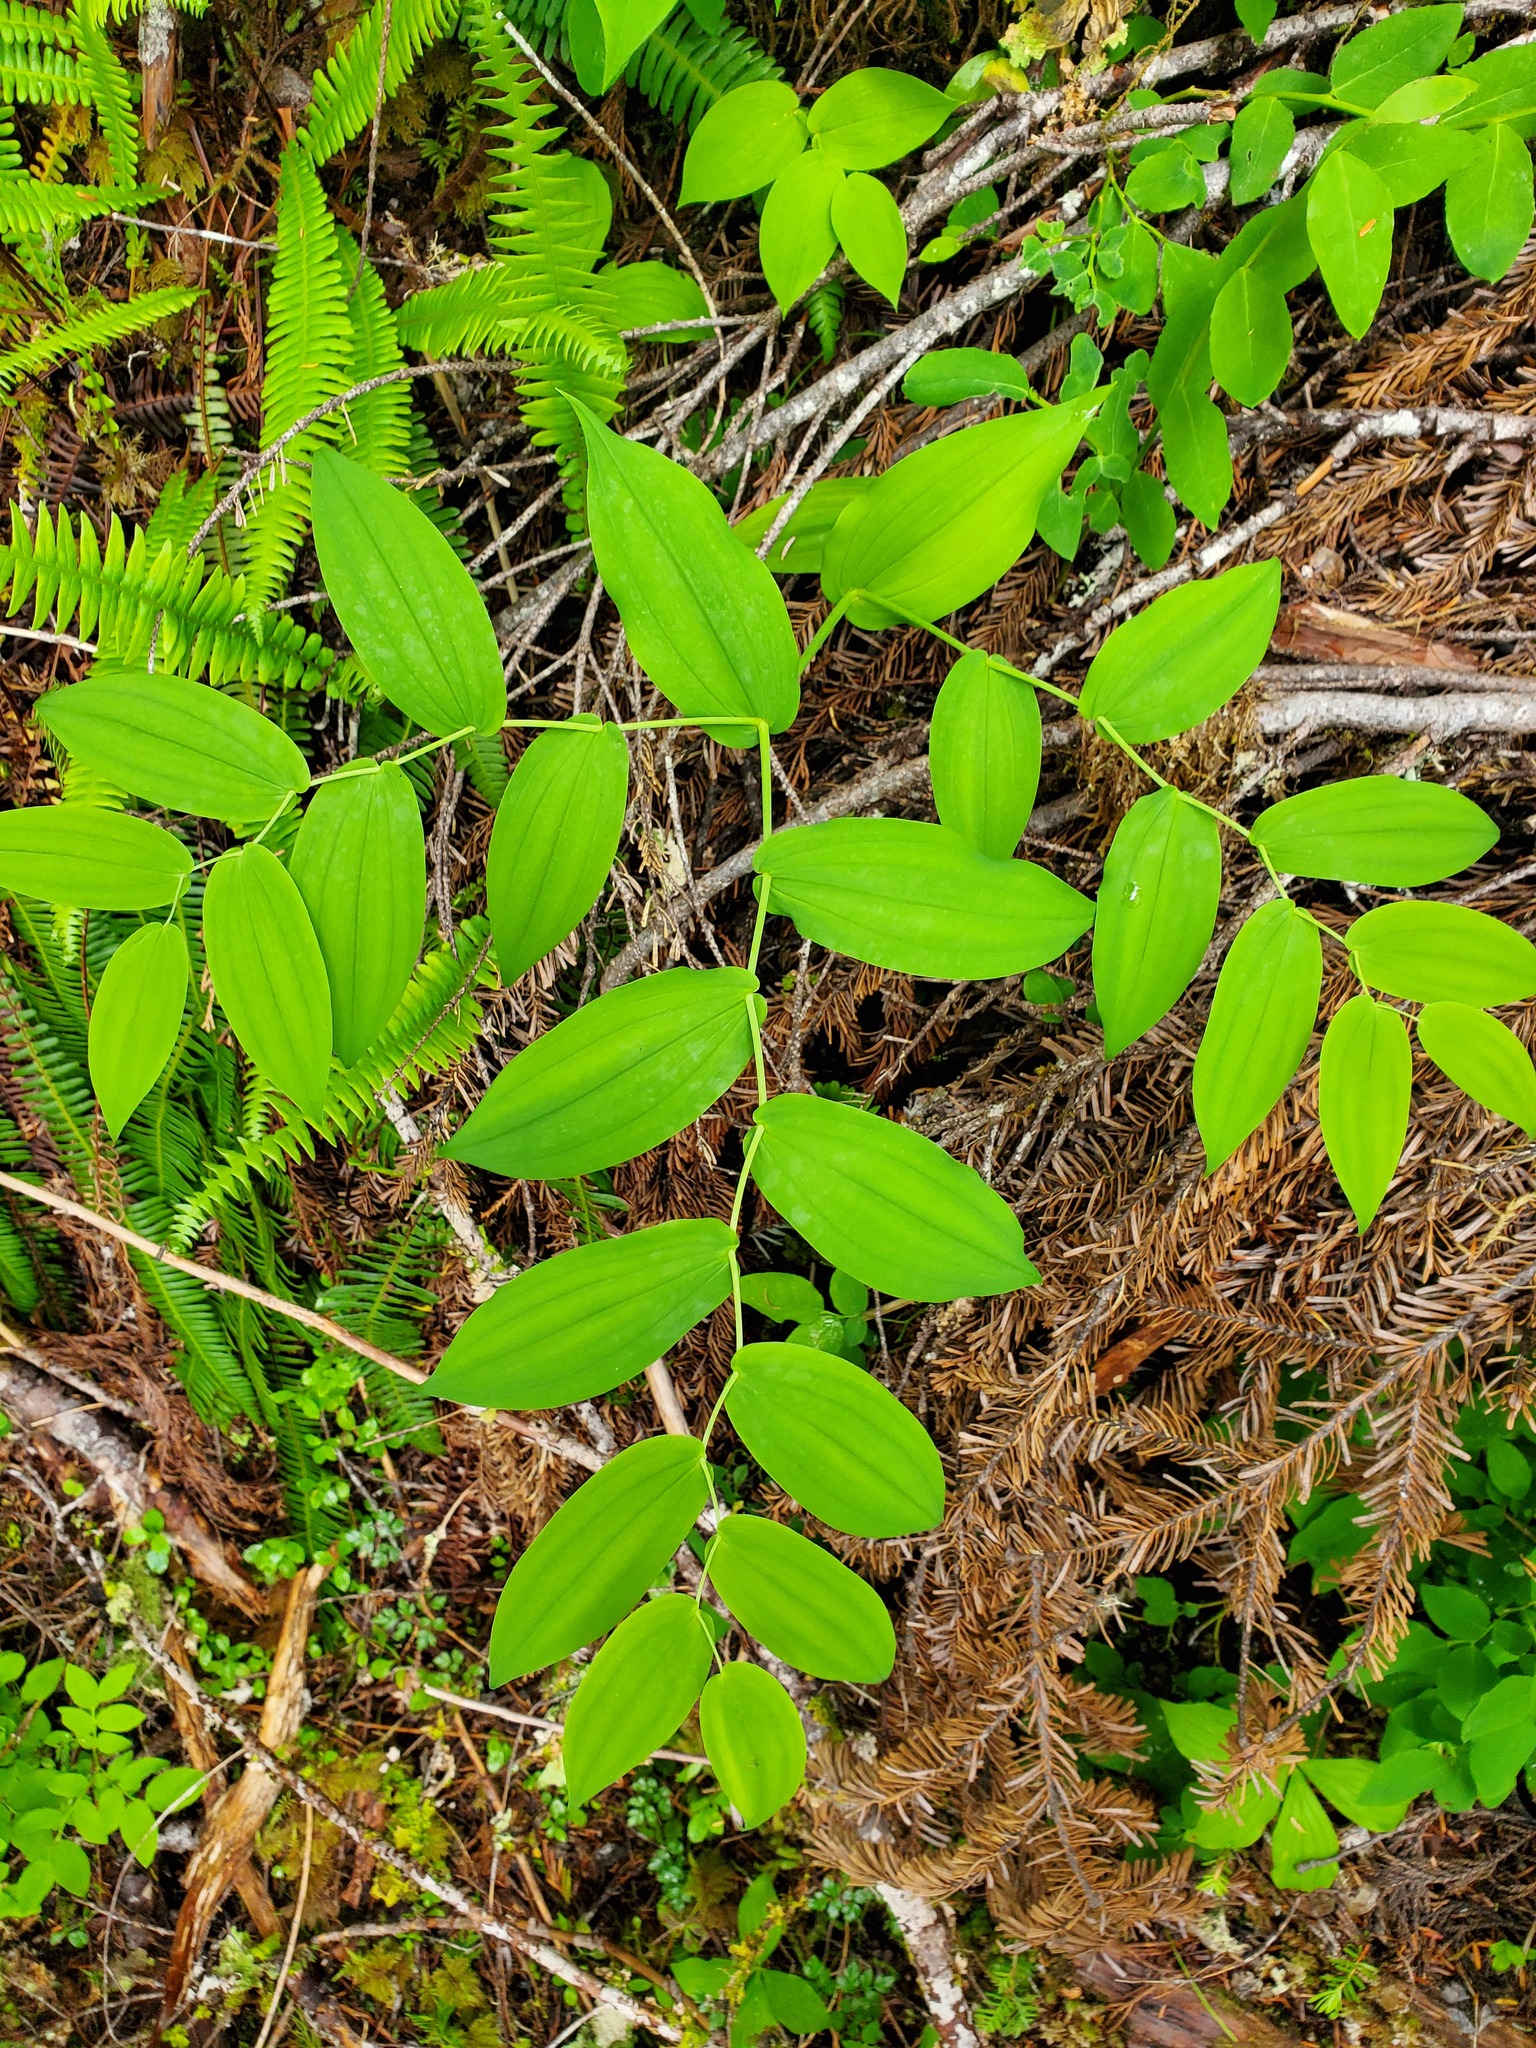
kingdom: Plantae
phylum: Tracheophyta
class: Liliopsida
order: Liliales
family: Liliaceae
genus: Streptopus
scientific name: Streptopus amplexifolius
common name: Clasp twisted stalk
